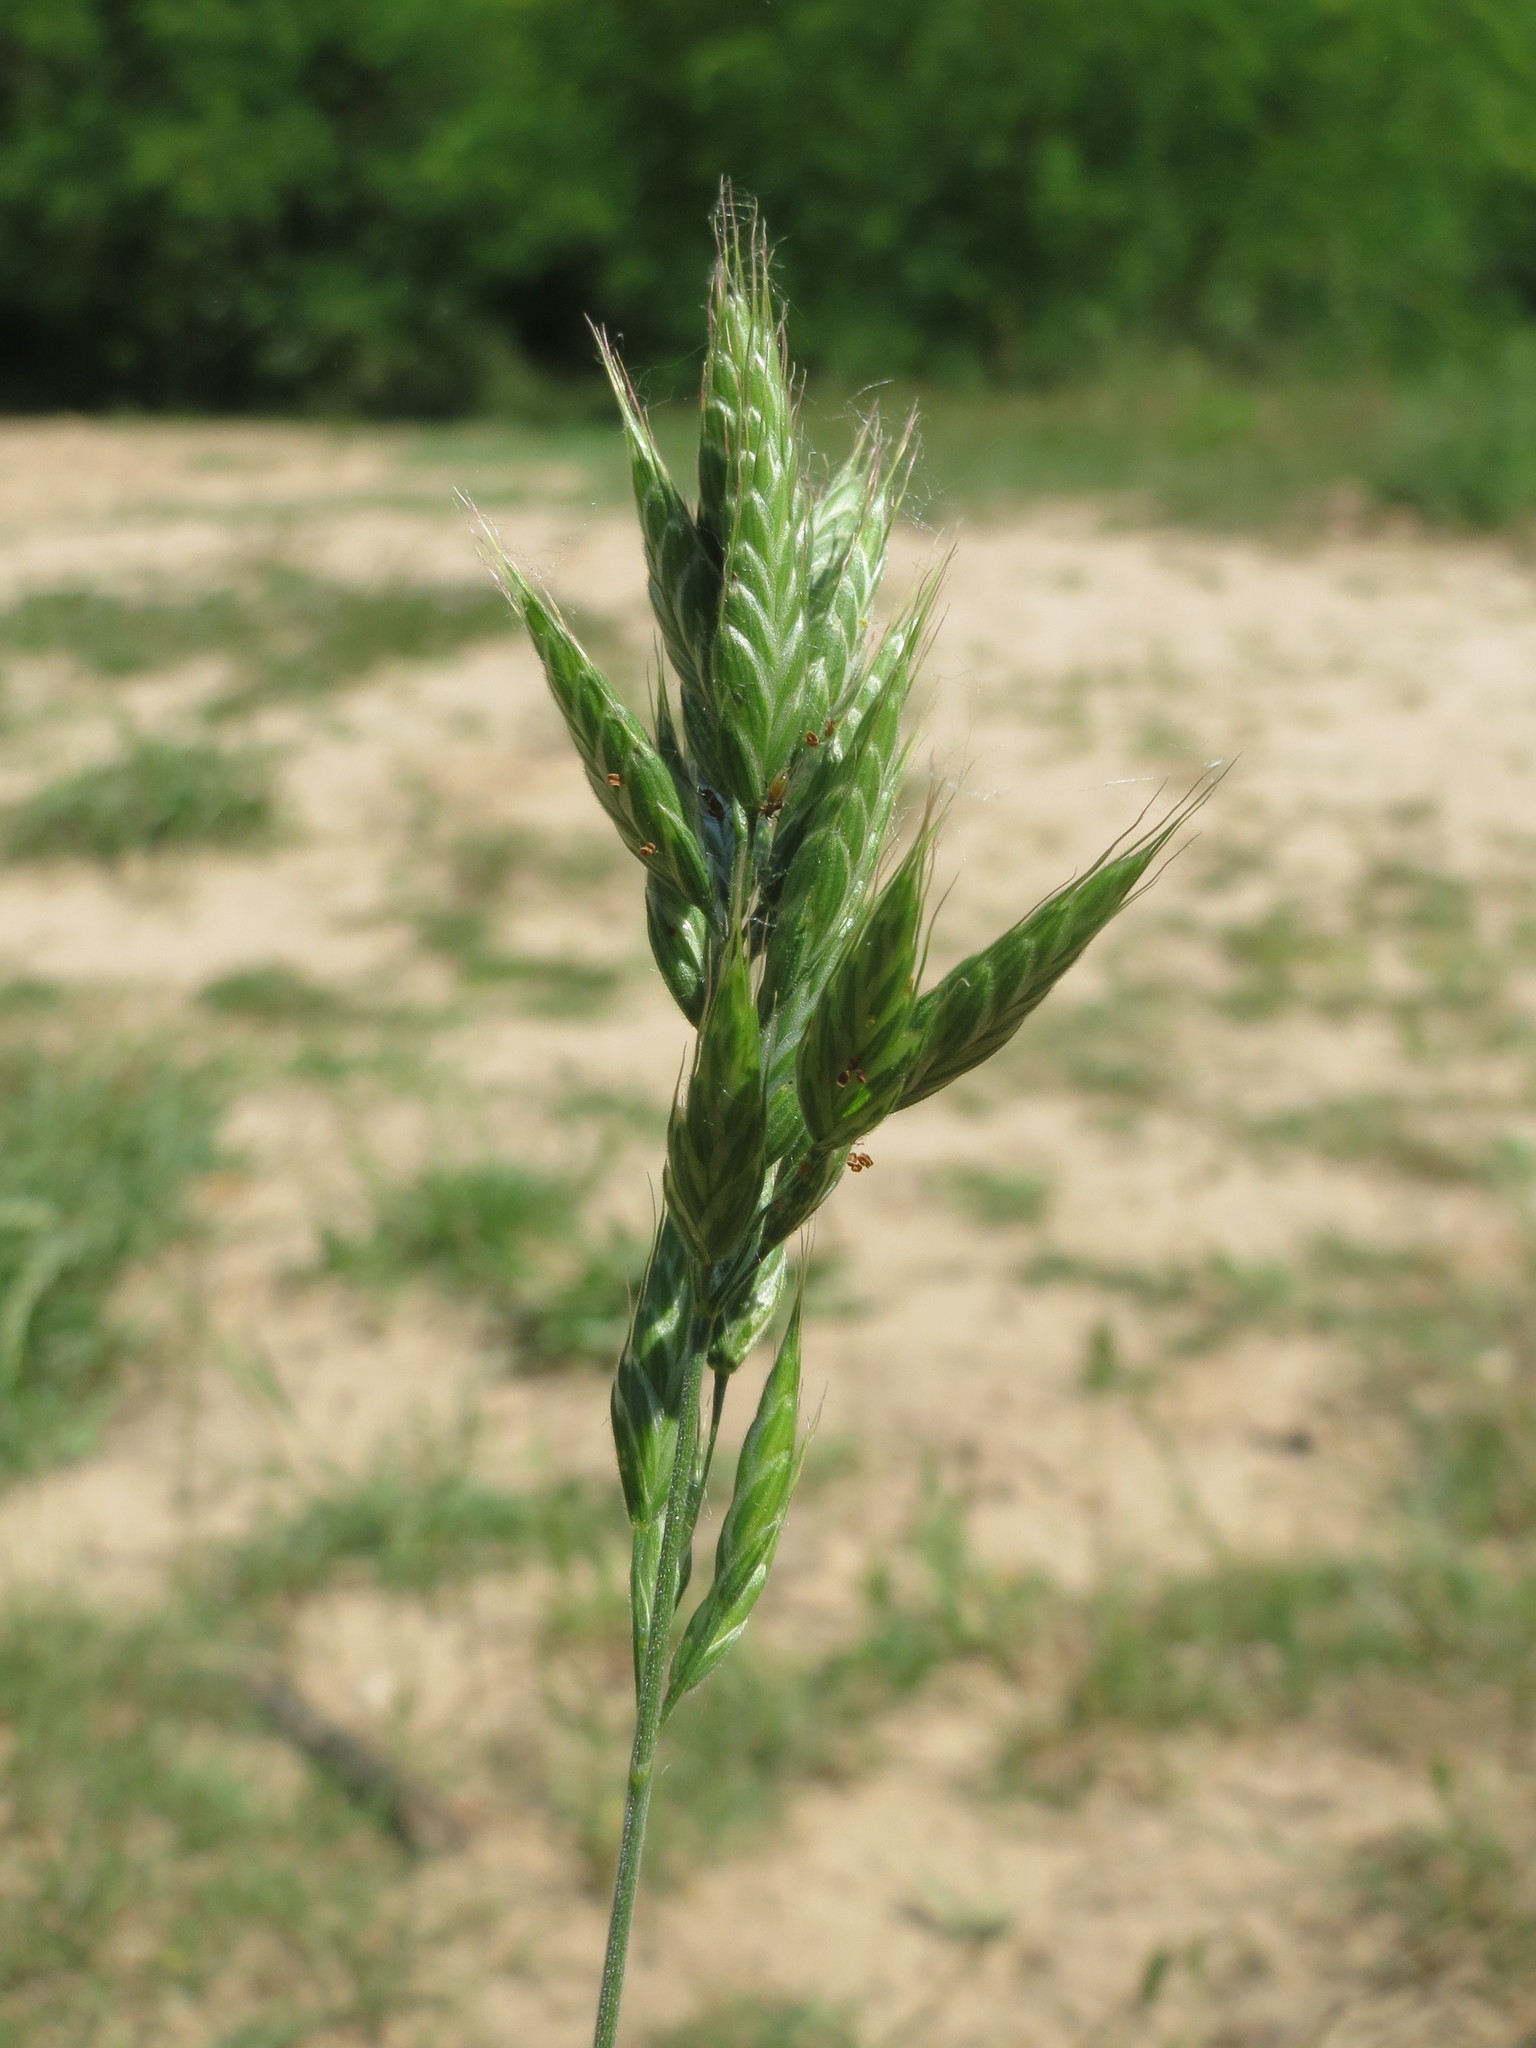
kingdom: Plantae
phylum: Tracheophyta
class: Liliopsida
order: Poales
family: Poaceae
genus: Bromus
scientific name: Bromus hordeaceus
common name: Soft brome
